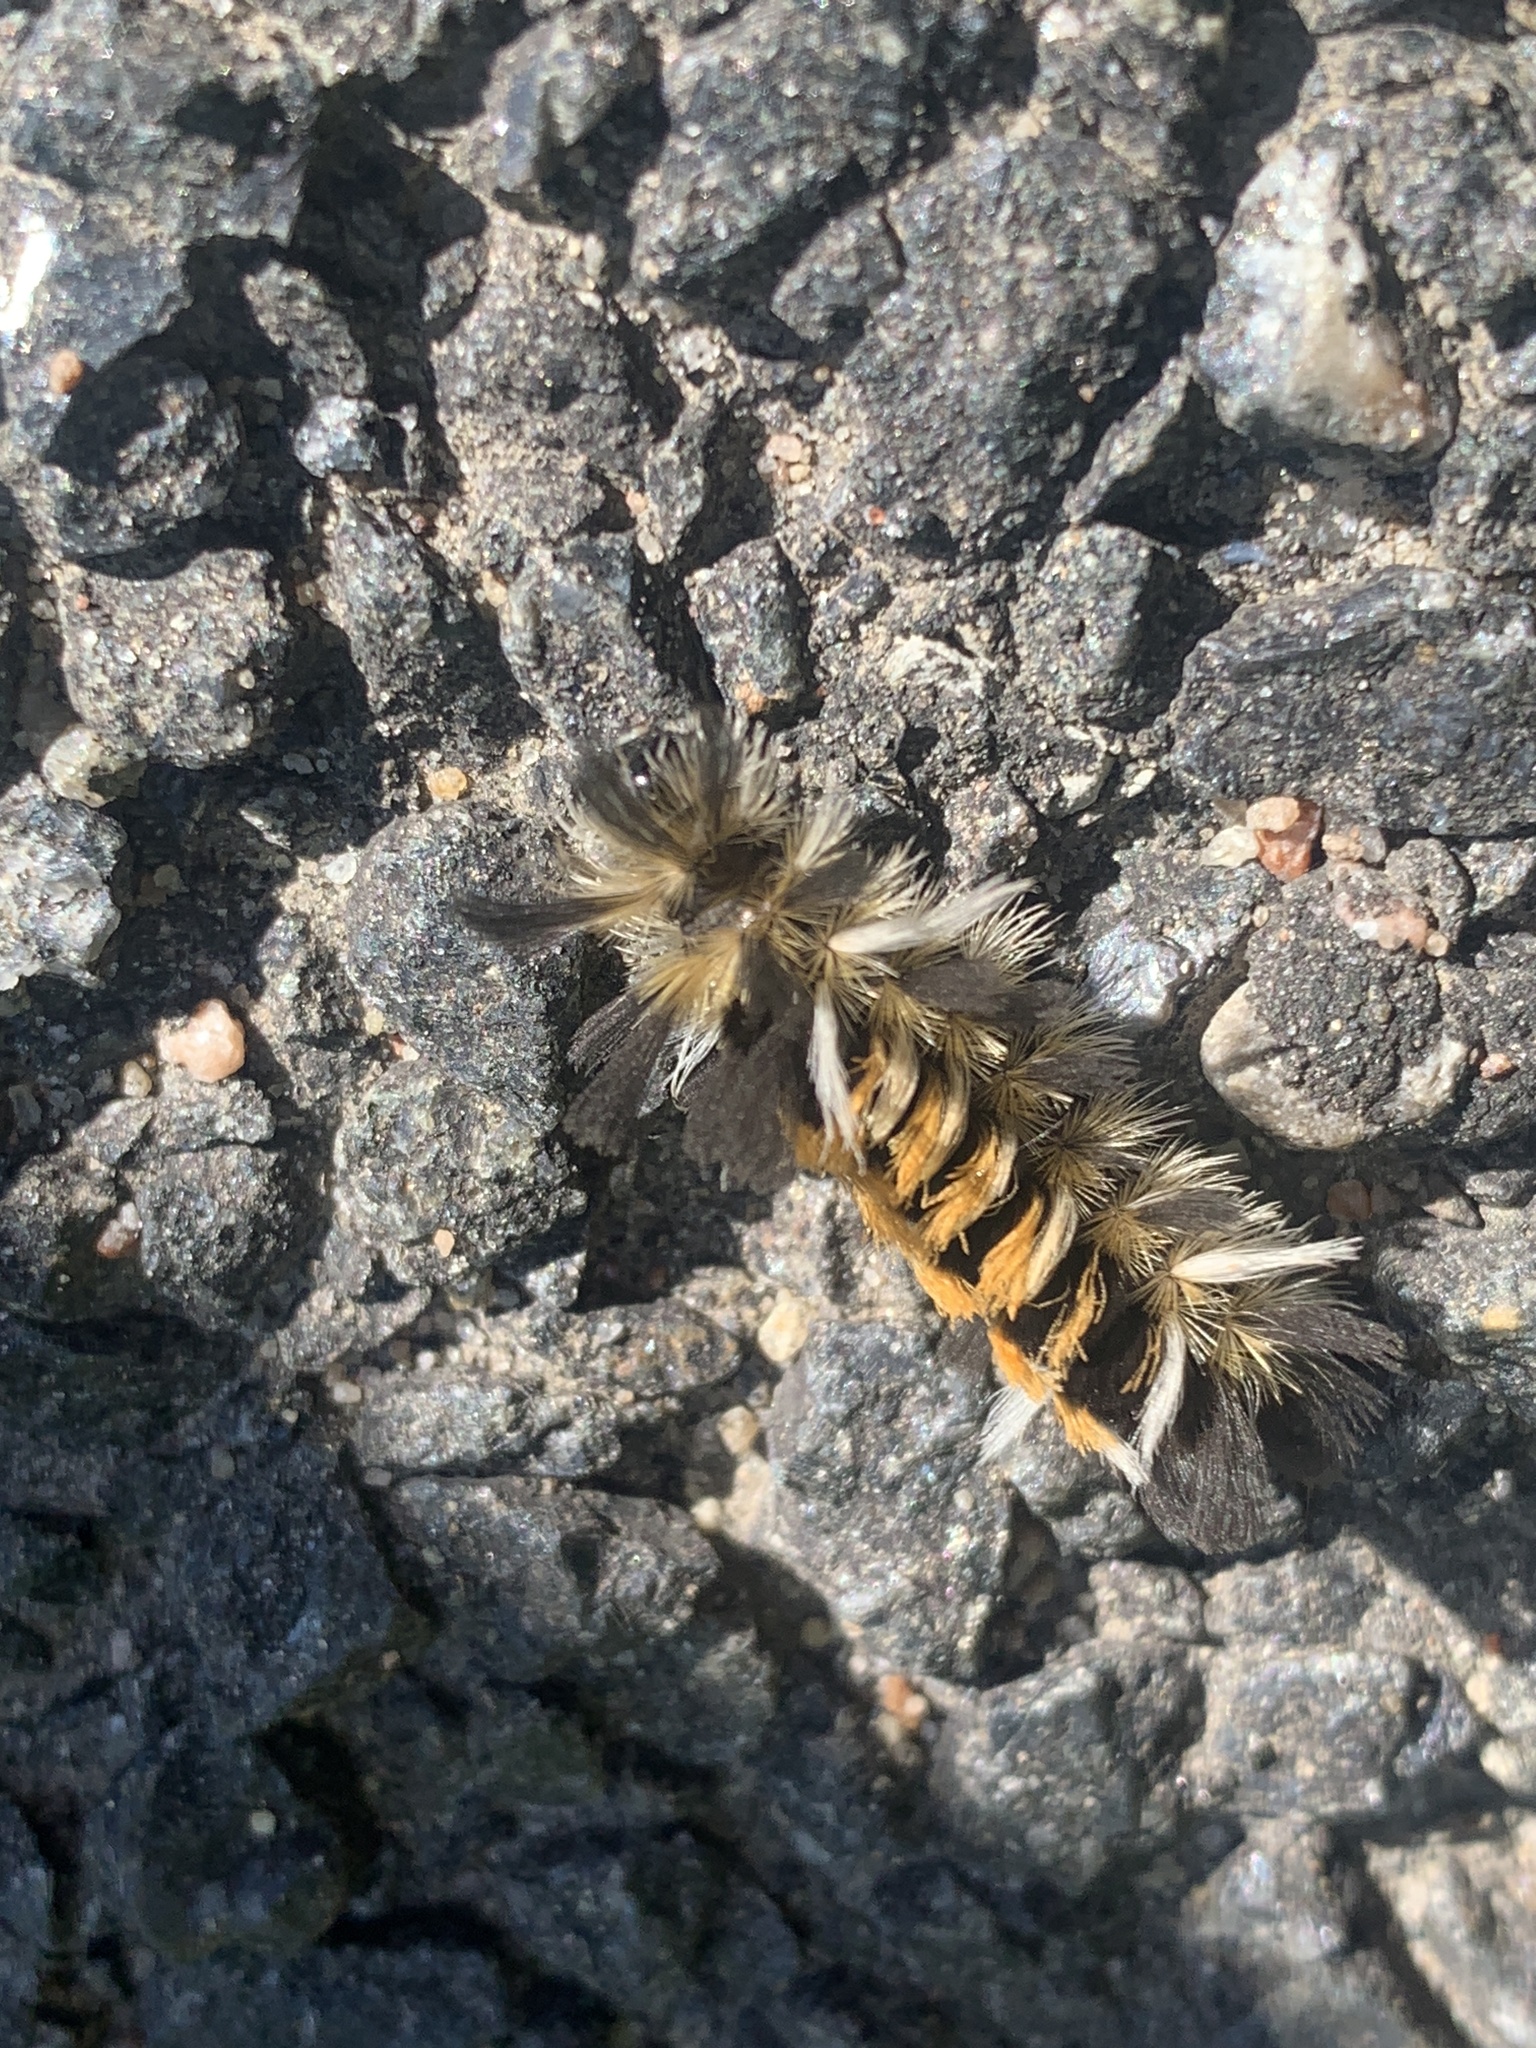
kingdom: Animalia
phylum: Arthropoda
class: Insecta
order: Lepidoptera
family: Erebidae
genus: Euchaetes
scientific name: Euchaetes egle
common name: Milkweed tussock moth
